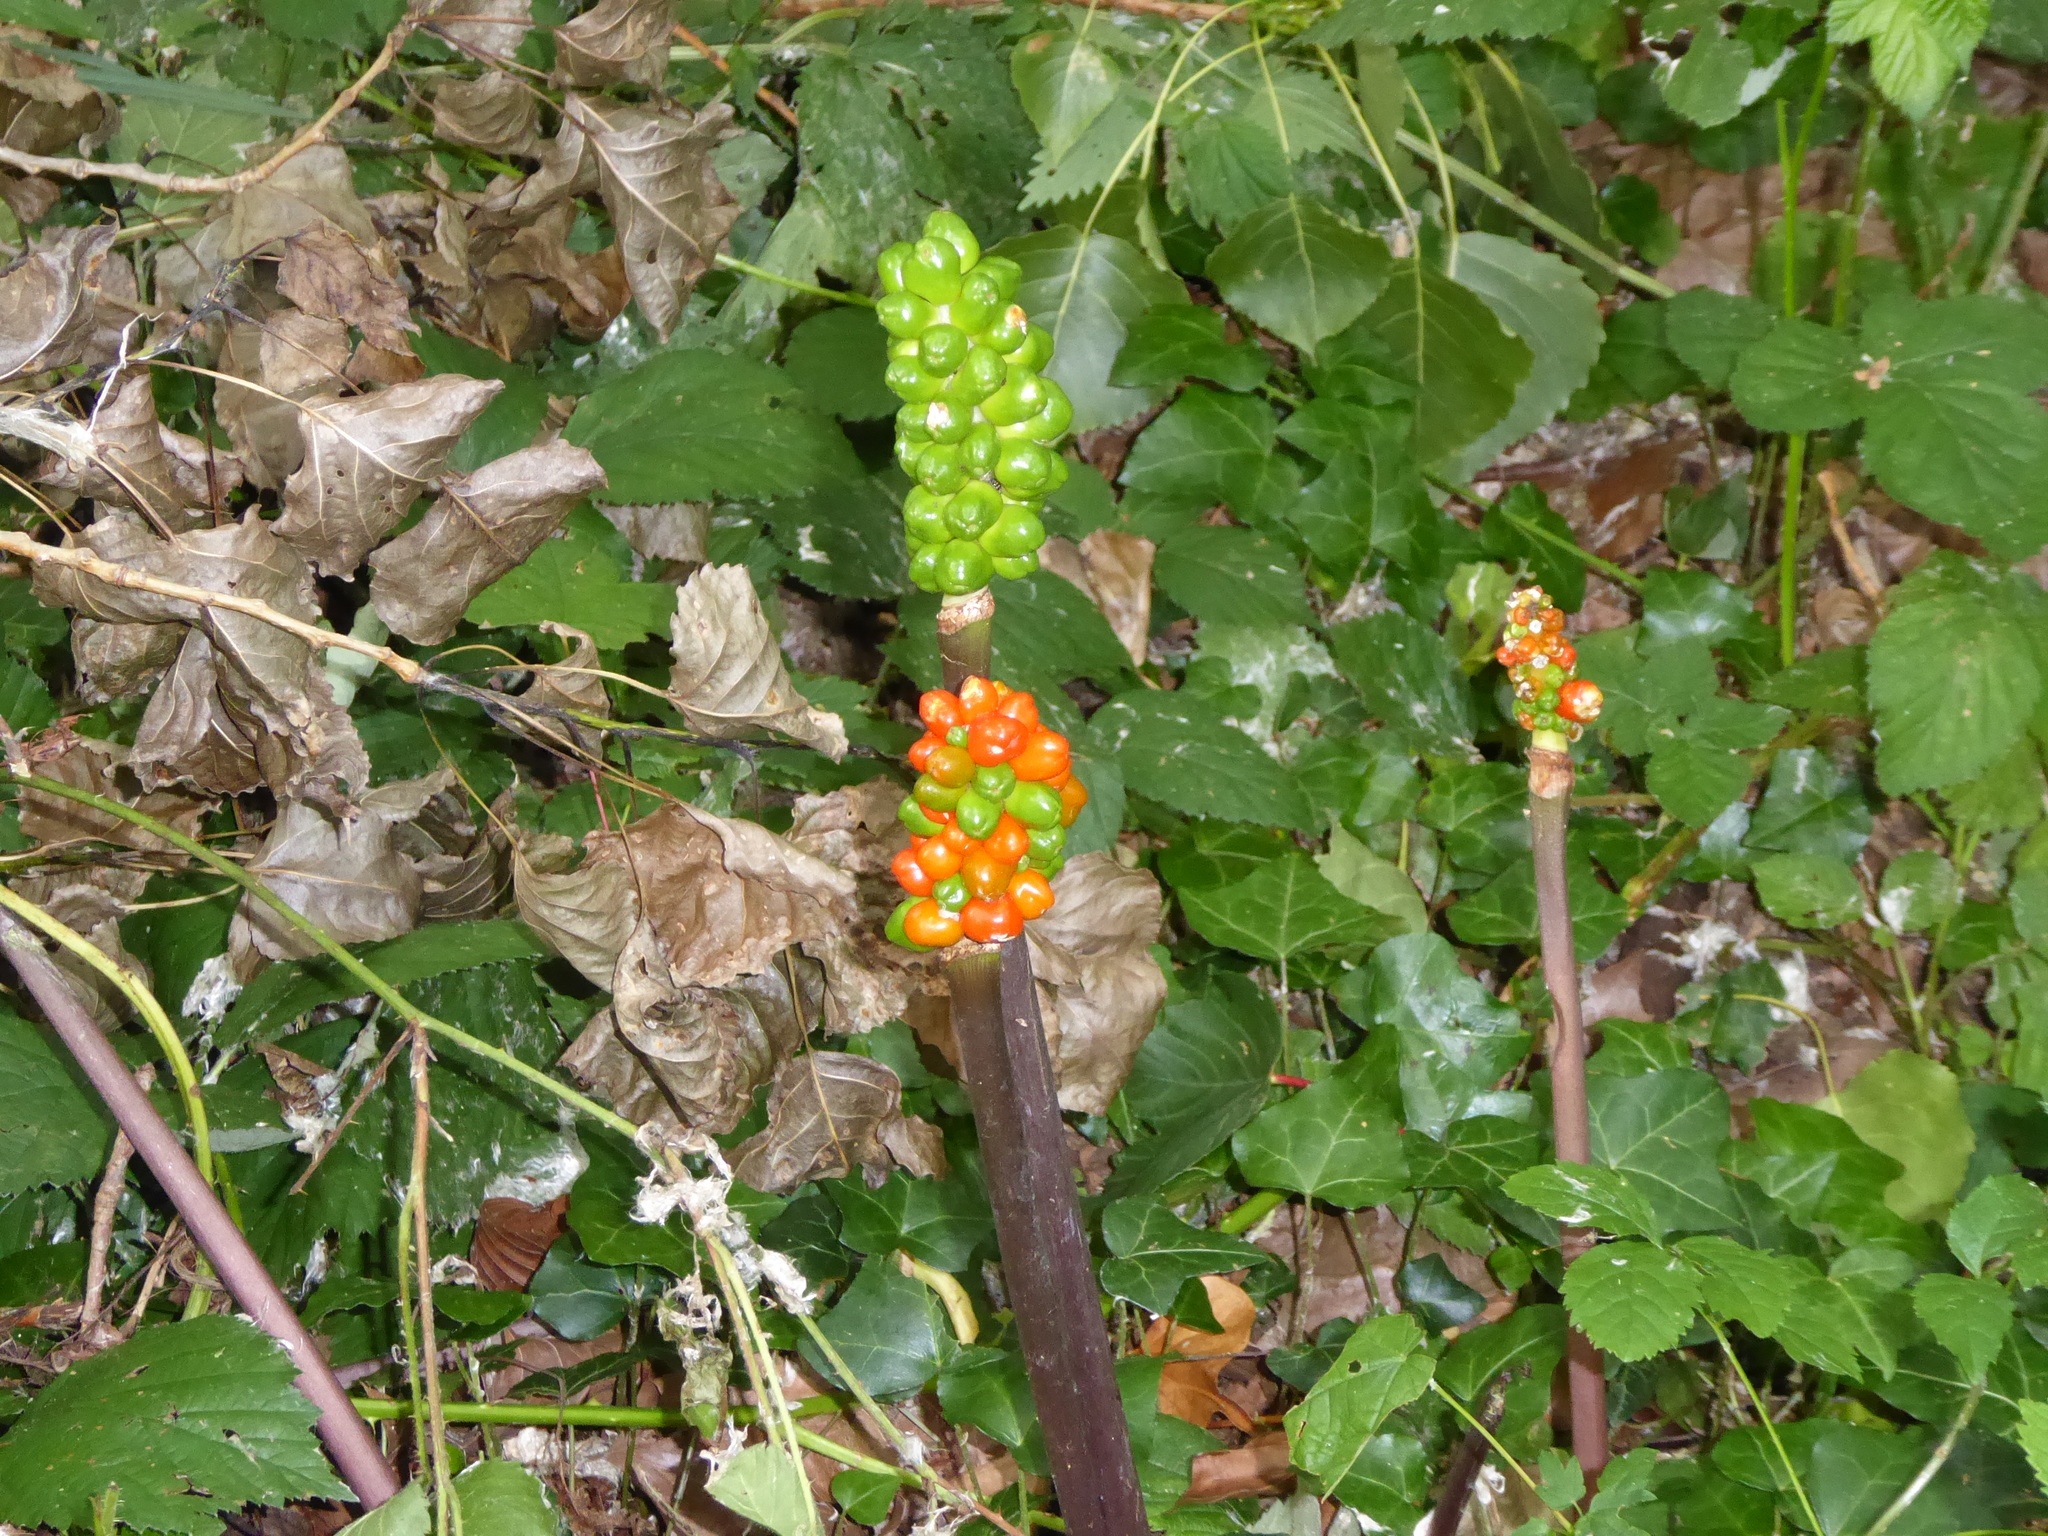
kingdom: Plantae
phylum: Tracheophyta
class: Liliopsida
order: Alismatales
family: Araceae
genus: Arum
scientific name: Arum maculatum
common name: Lords-and-ladies
